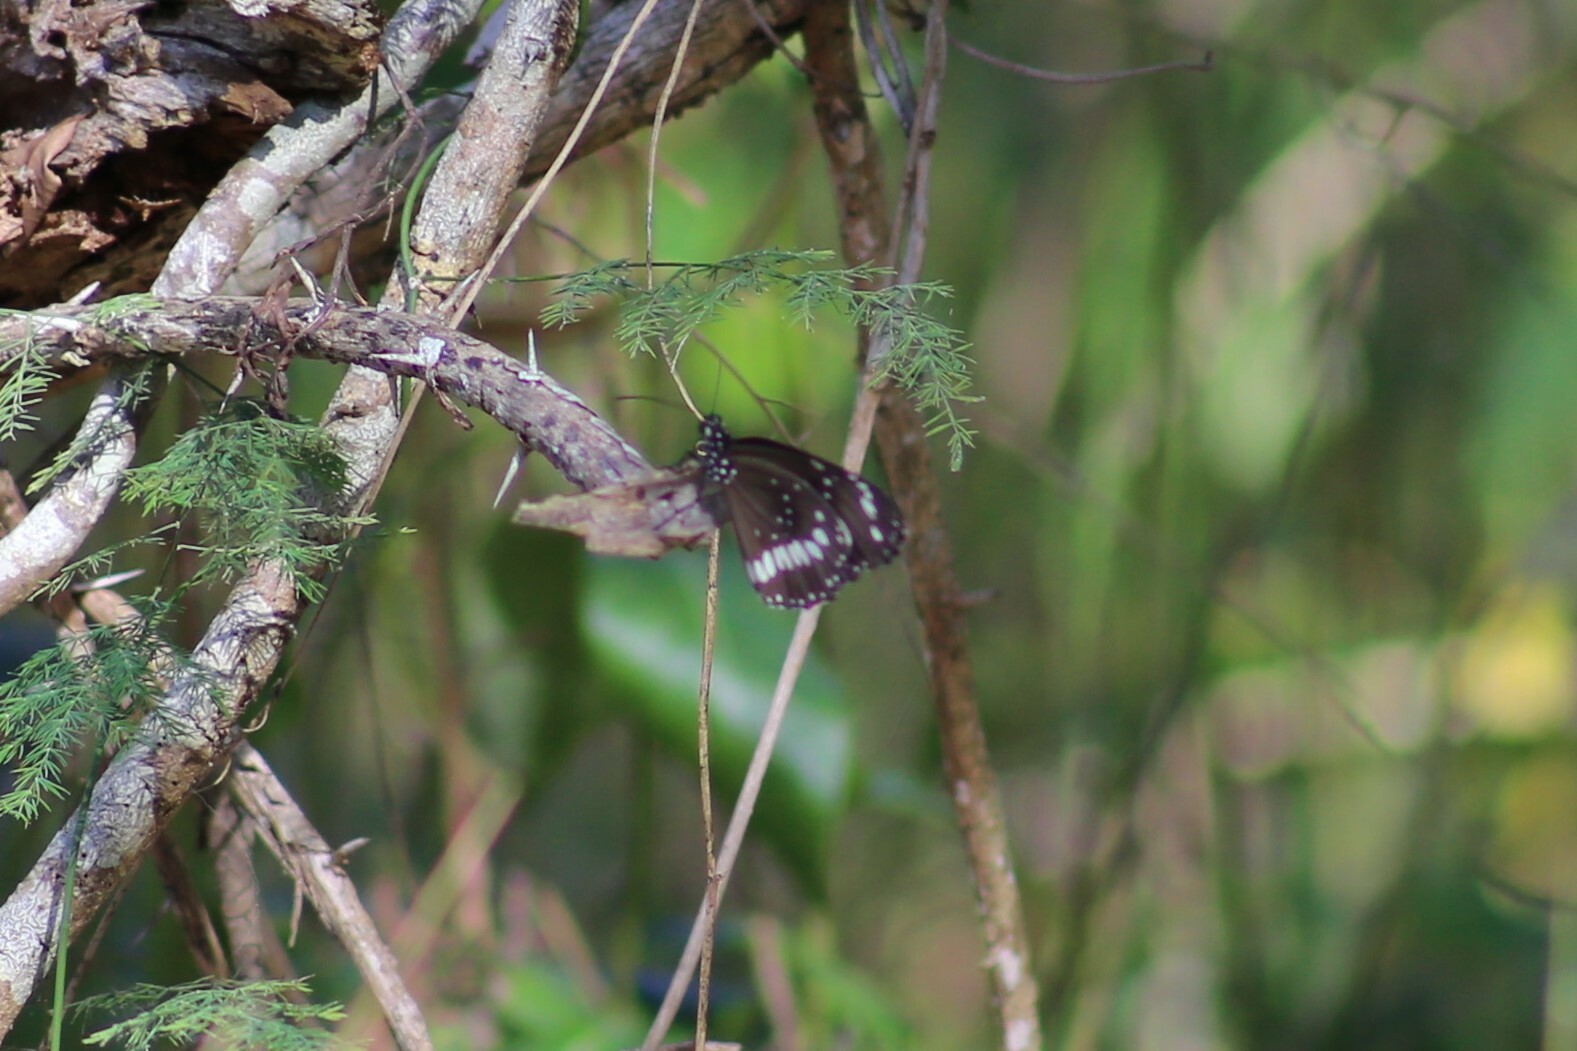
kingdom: Animalia
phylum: Arthropoda
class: Insecta
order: Lepidoptera
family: Nymphalidae
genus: Euploea
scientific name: Euploea core
